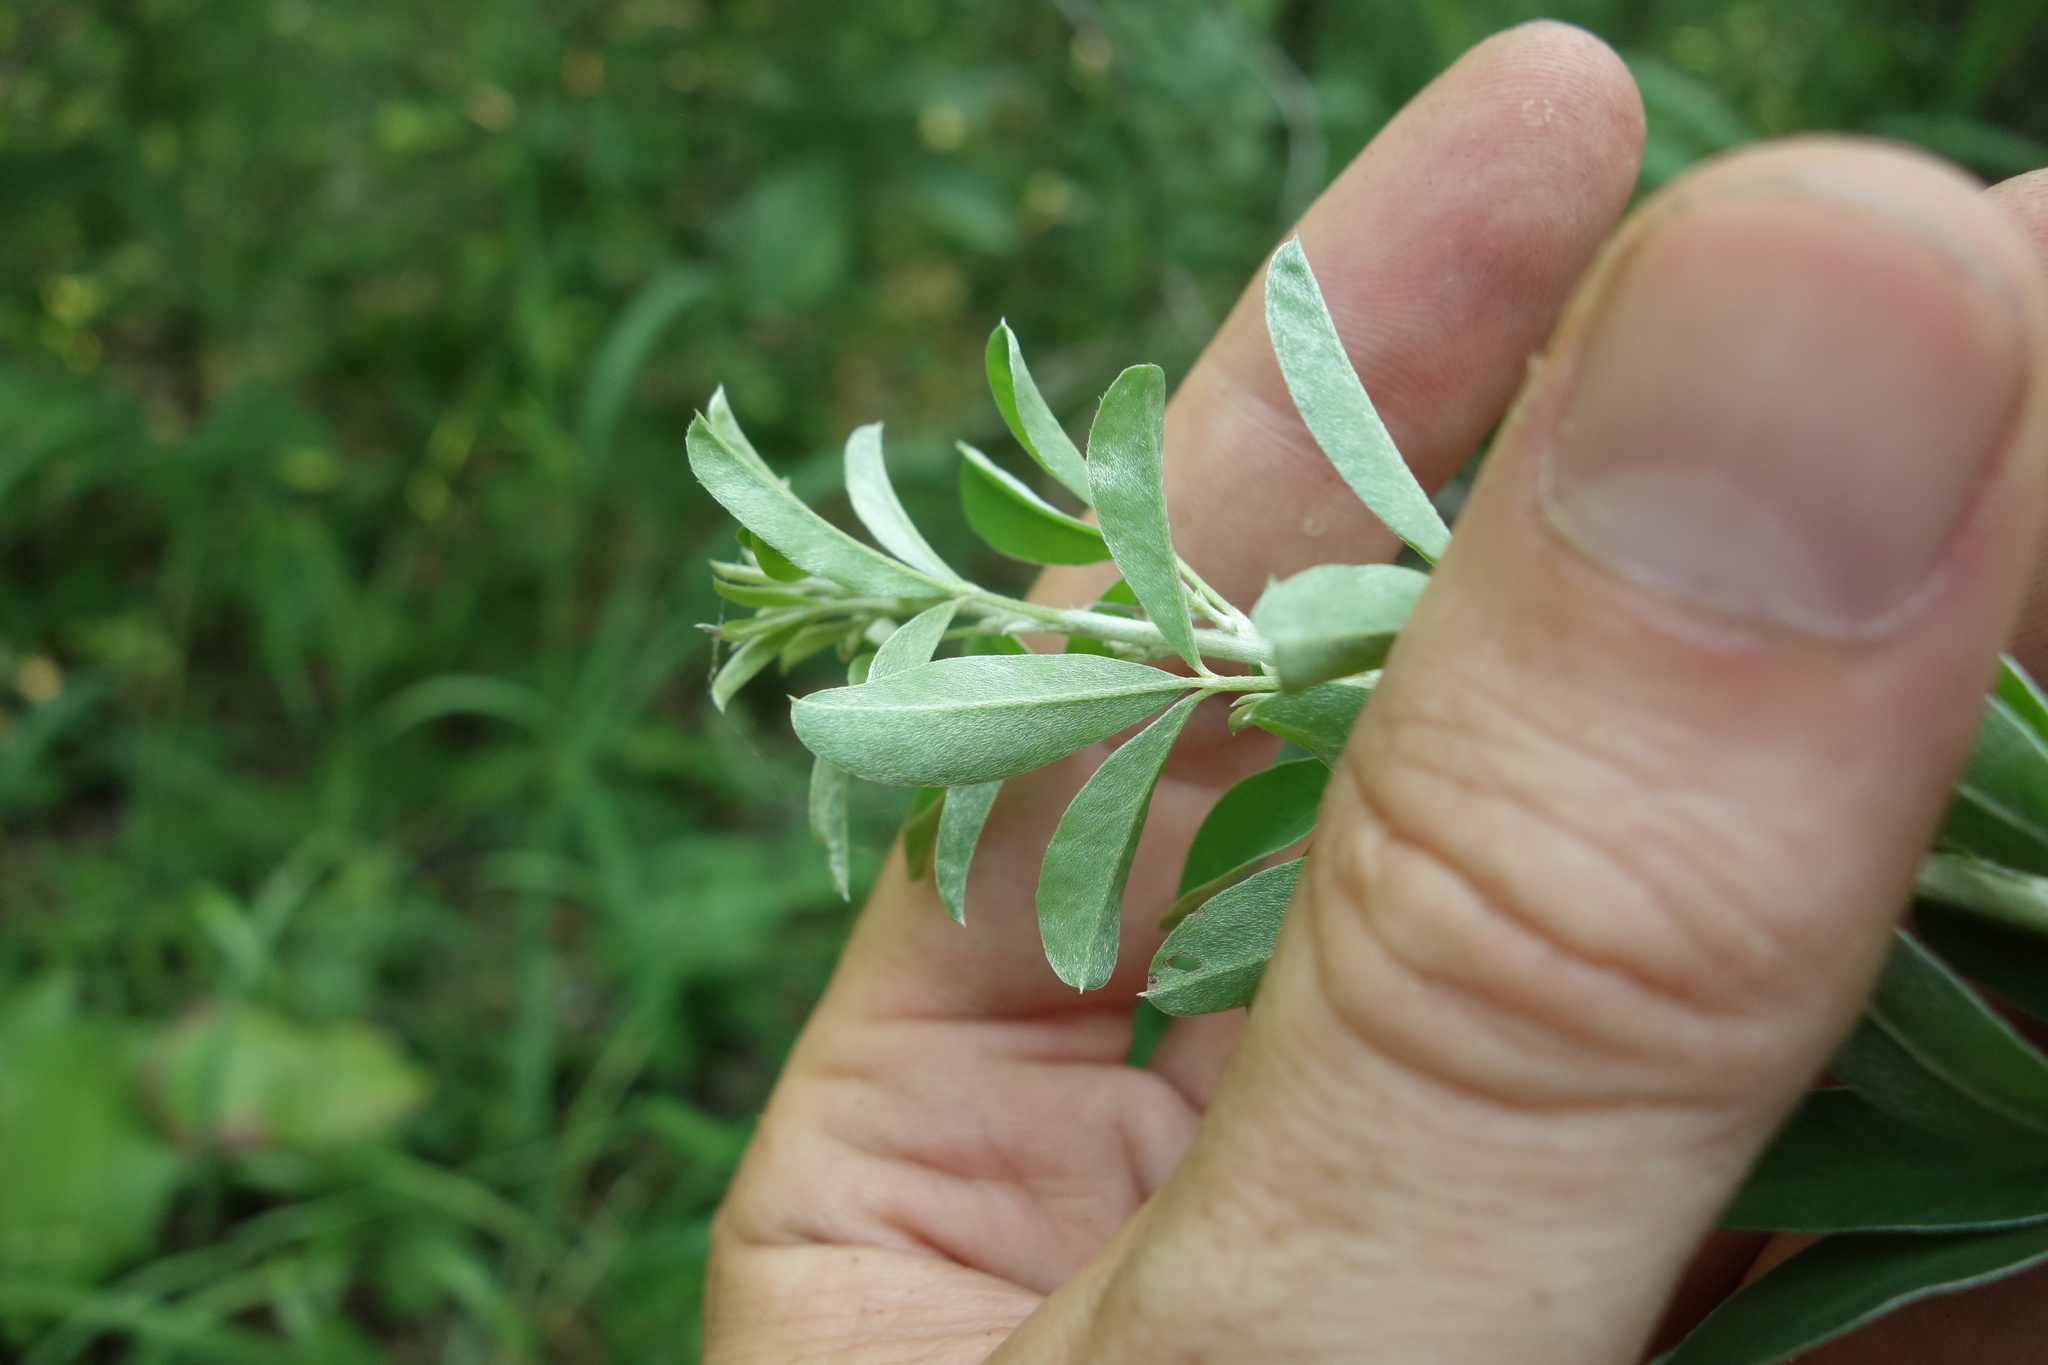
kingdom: Plantae
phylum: Tracheophyta
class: Magnoliopsida
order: Fabales
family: Fabaceae
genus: Chamaecytisus
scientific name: Chamaecytisus ruthenicus
